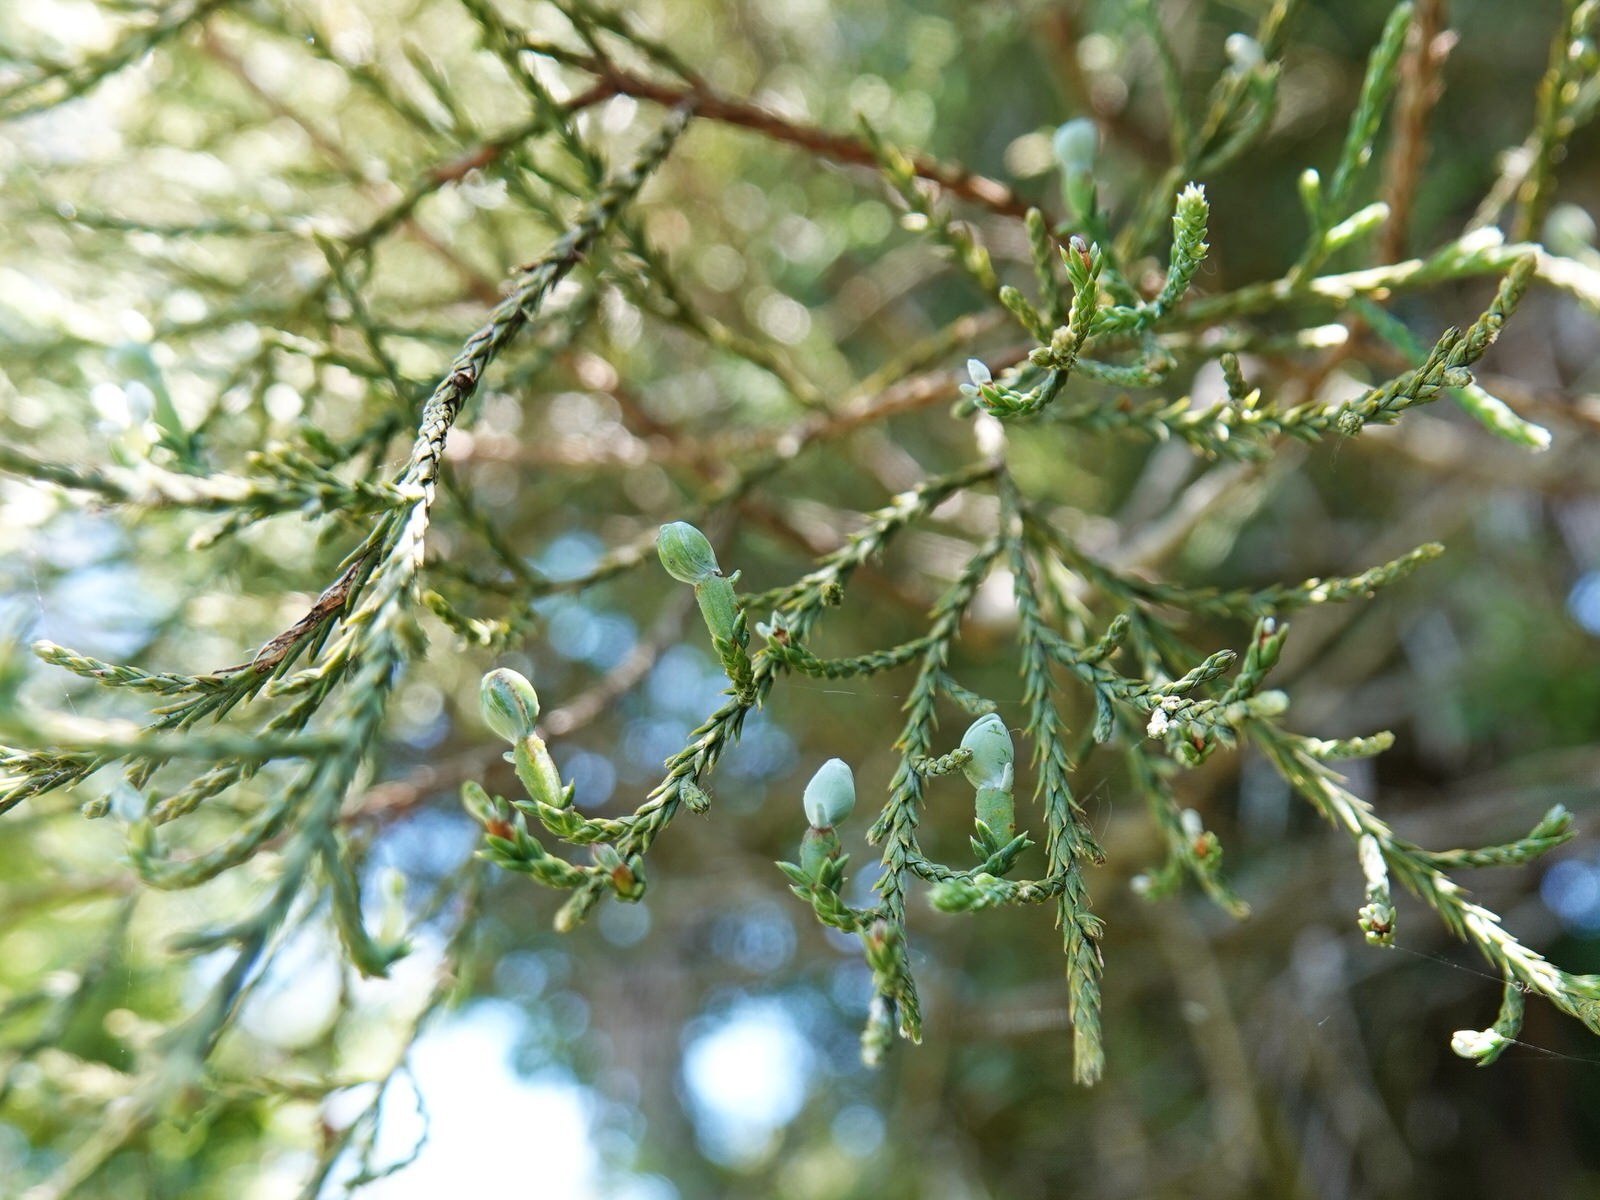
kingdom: Plantae
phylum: Tracheophyta
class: Pinopsida
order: Pinales
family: Podocarpaceae
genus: Dacrycarpus
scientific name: Dacrycarpus dacrydioides
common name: White pine
